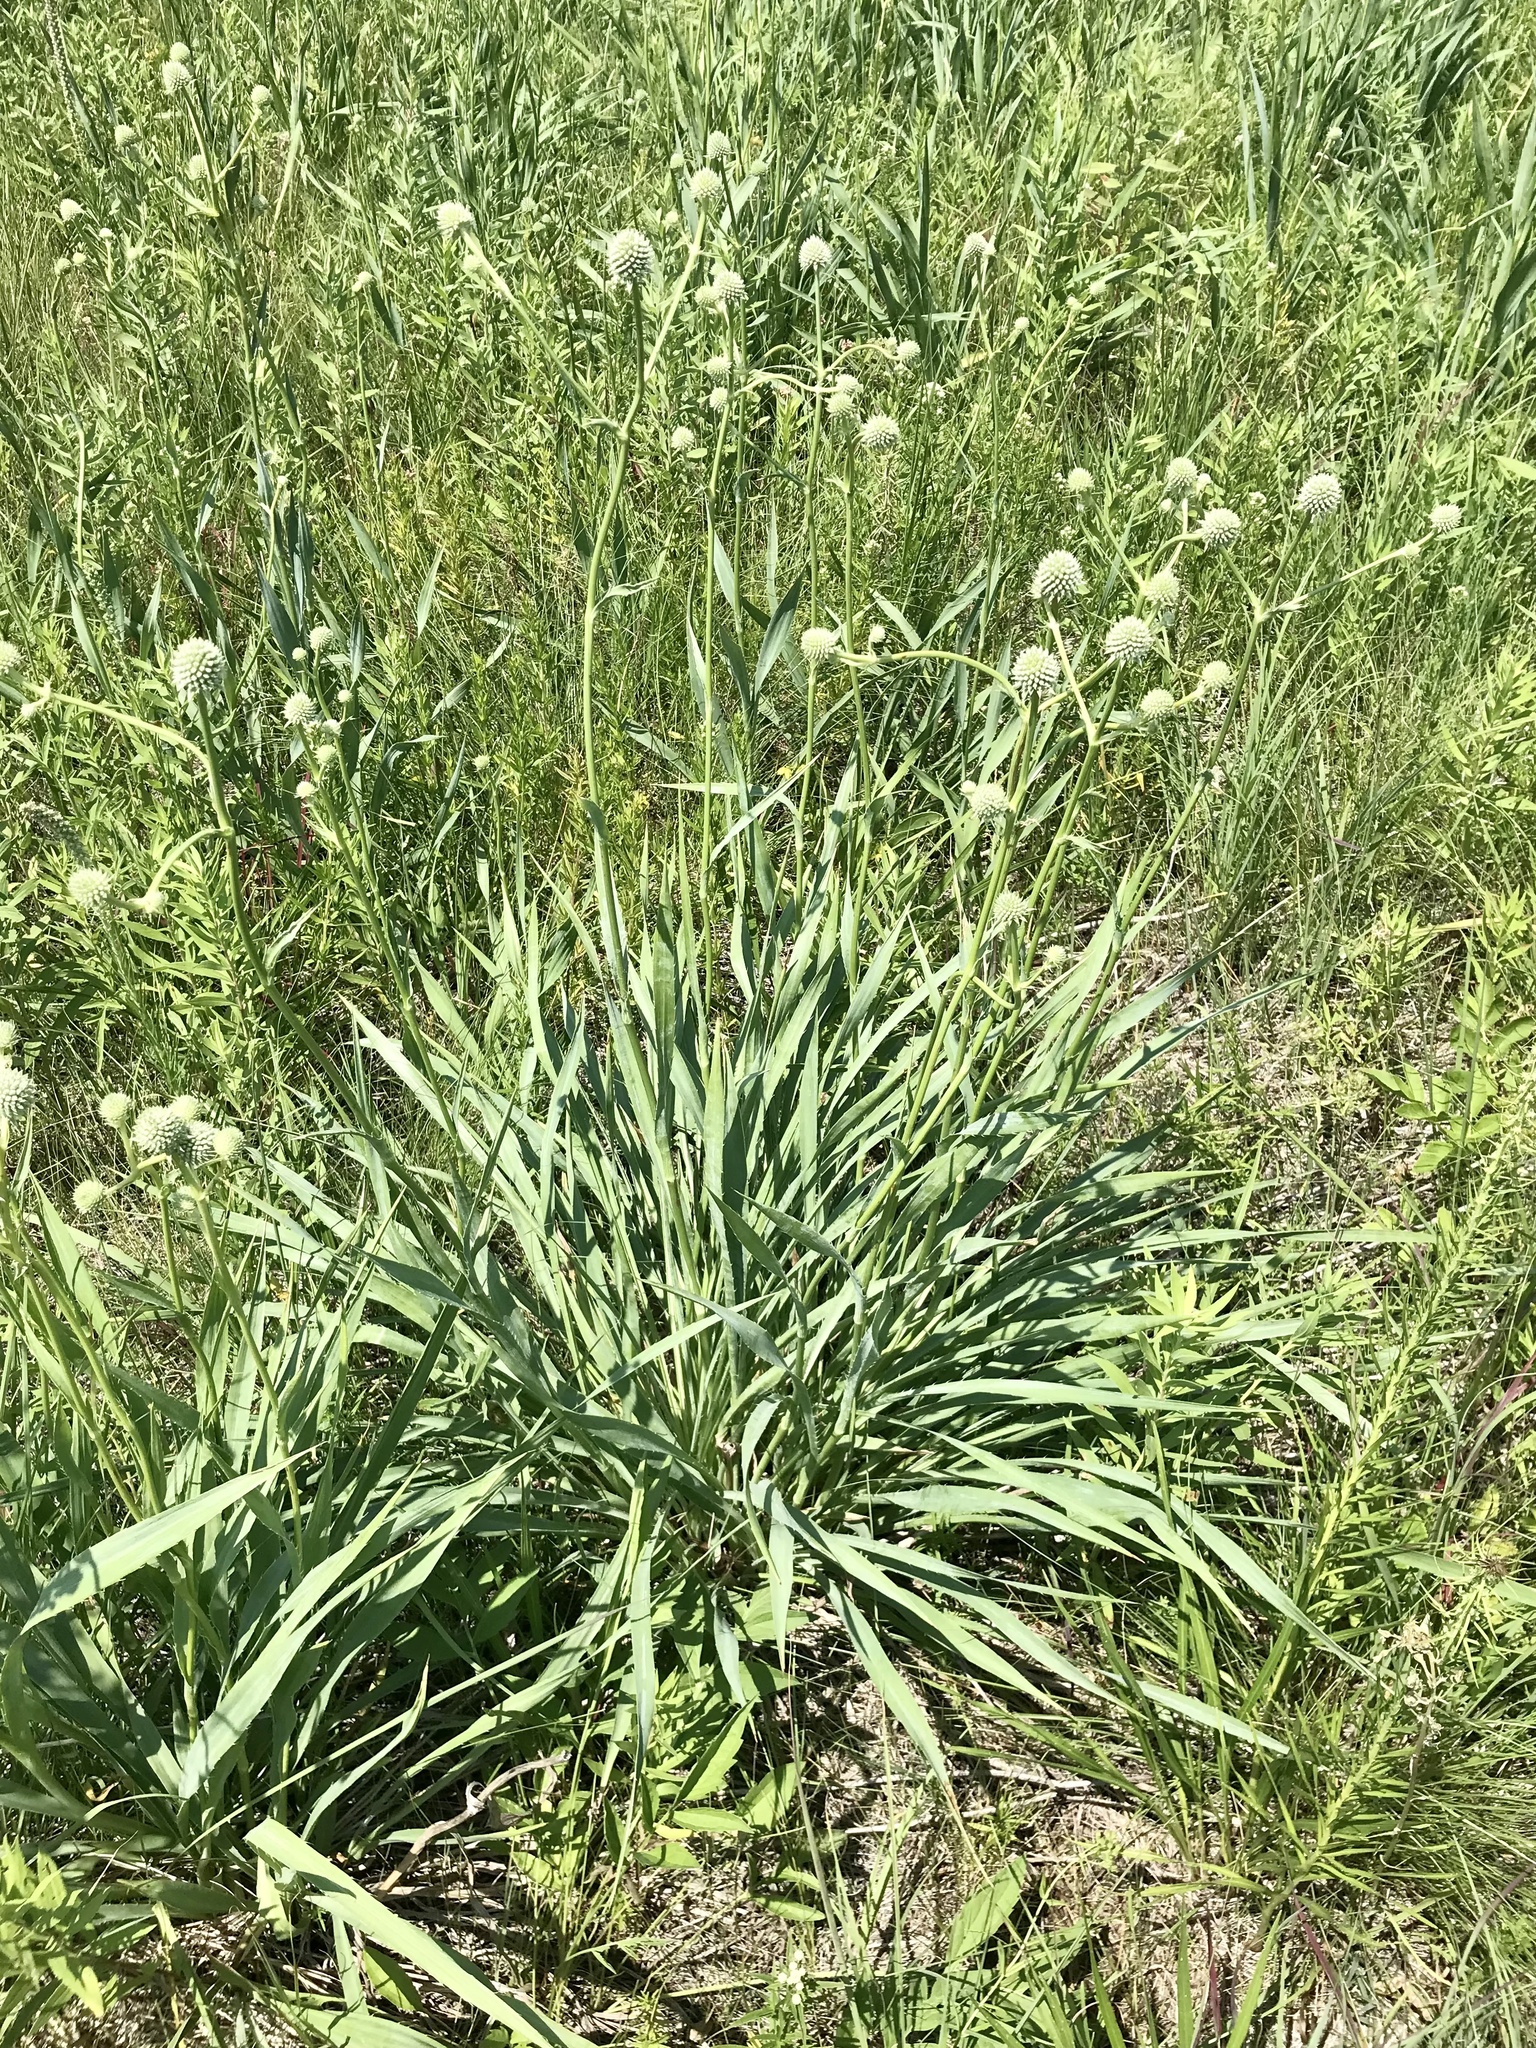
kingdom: Plantae
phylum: Tracheophyta
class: Magnoliopsida
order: Apiales
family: Apiaceae
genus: Eryngium
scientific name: Eryngium yuccifolium
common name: Button eryngo
